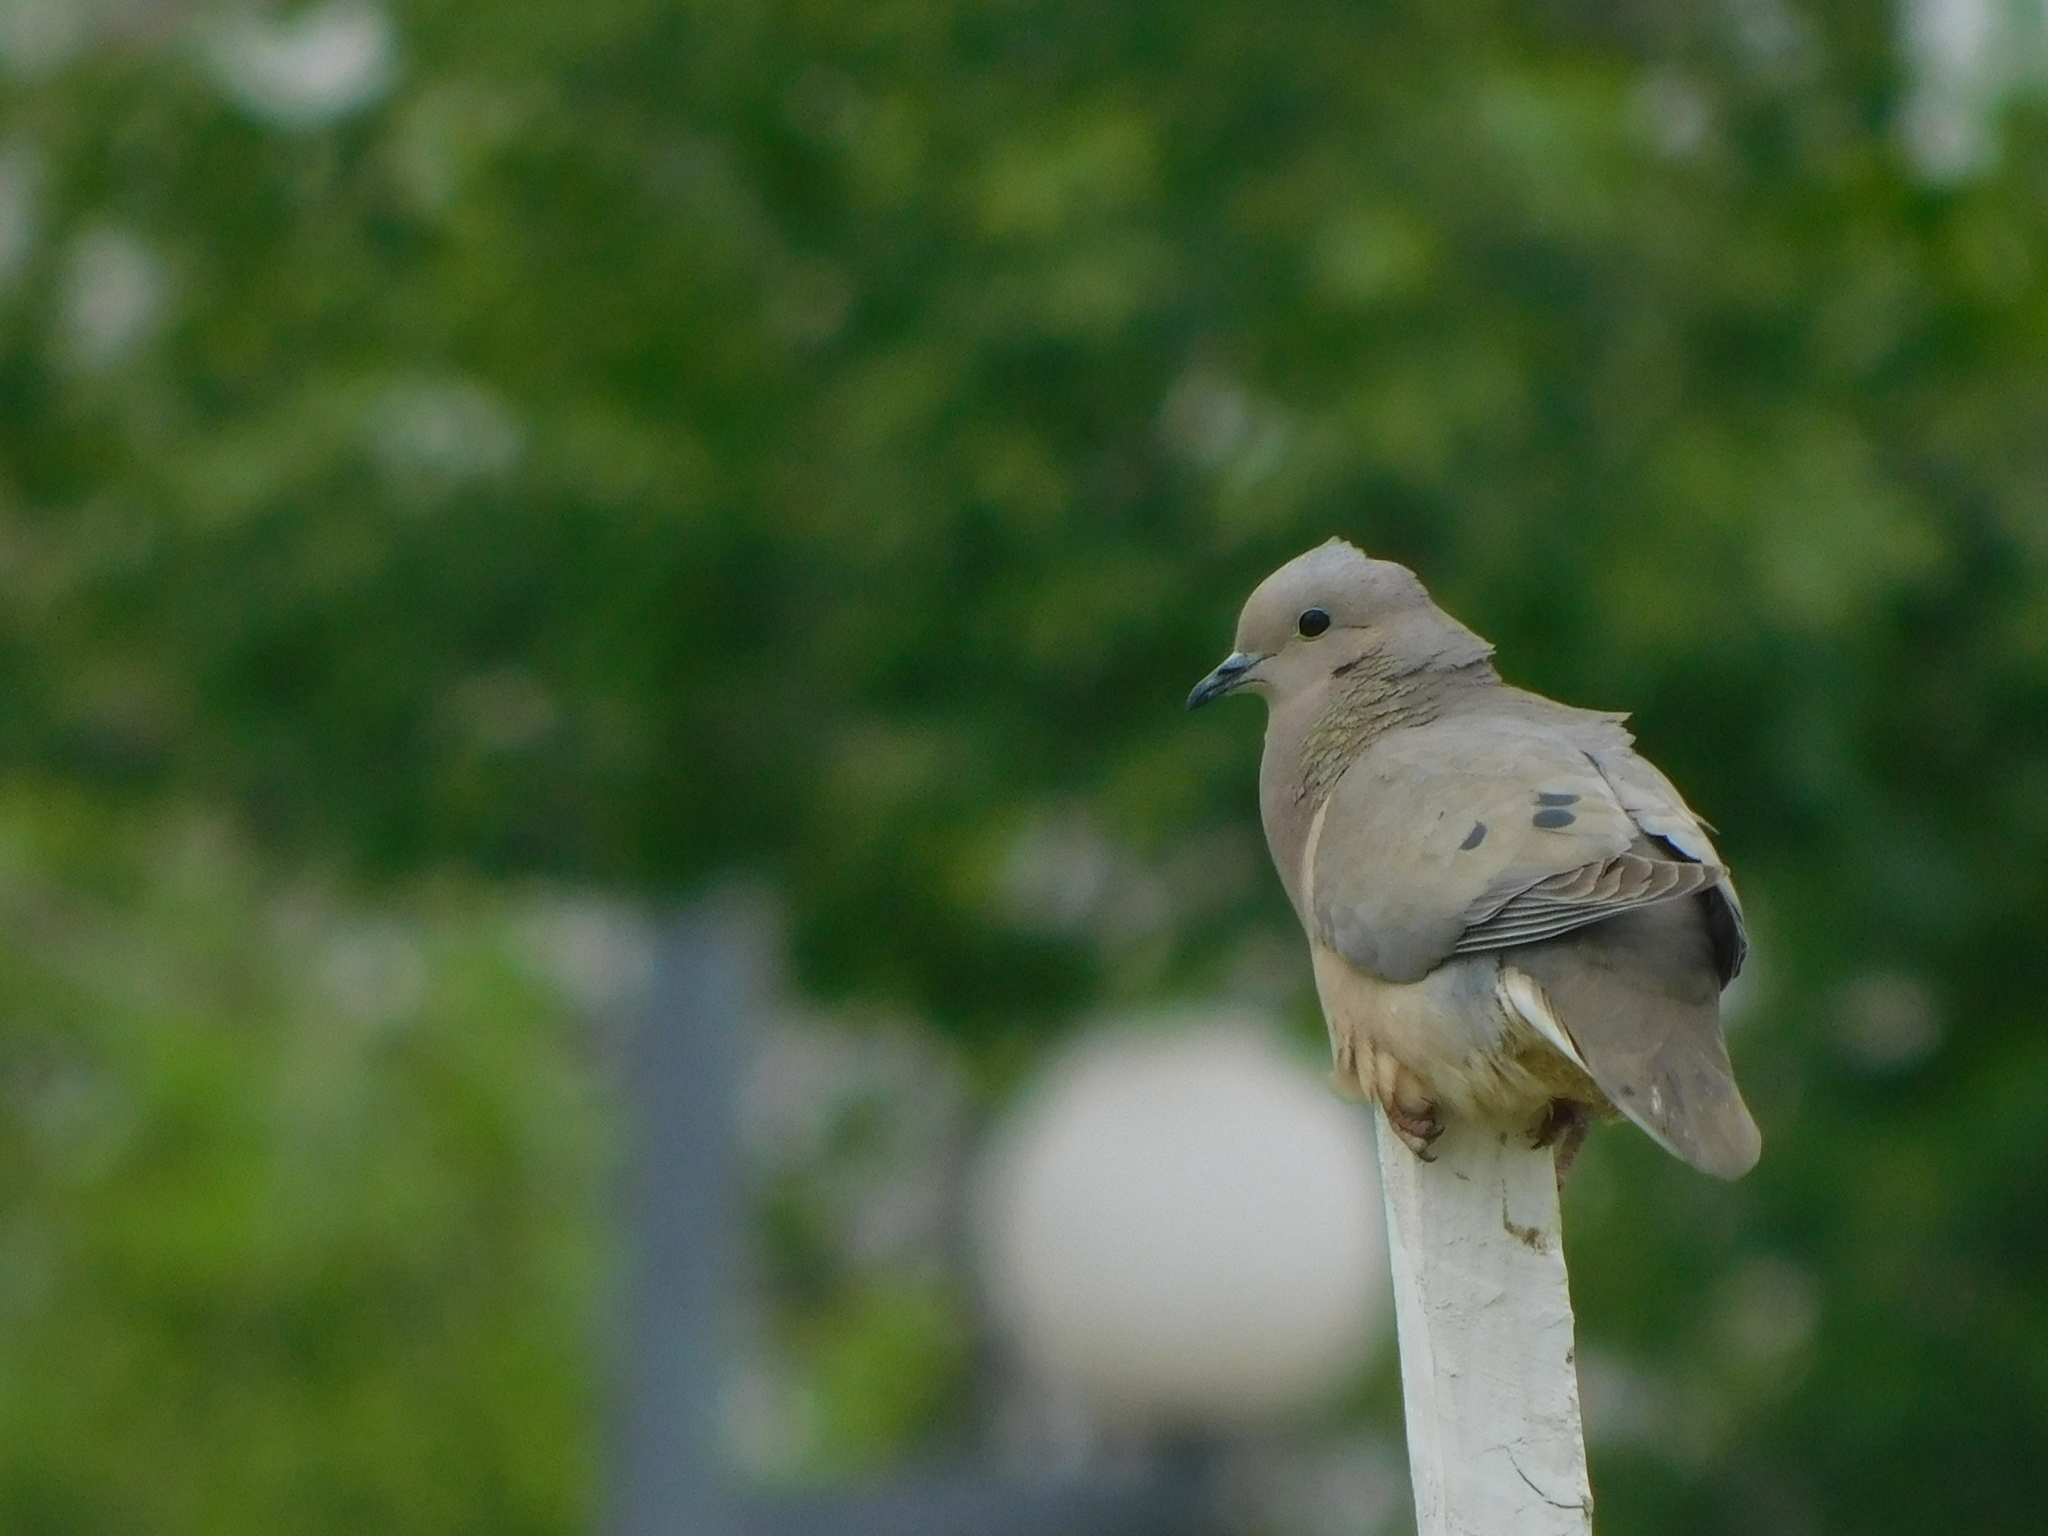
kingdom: Animalia
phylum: Chordata
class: Aves
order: Columbiformes
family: Columbidae
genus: Zenaida
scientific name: Zenaida auriculata
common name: Eared dove
